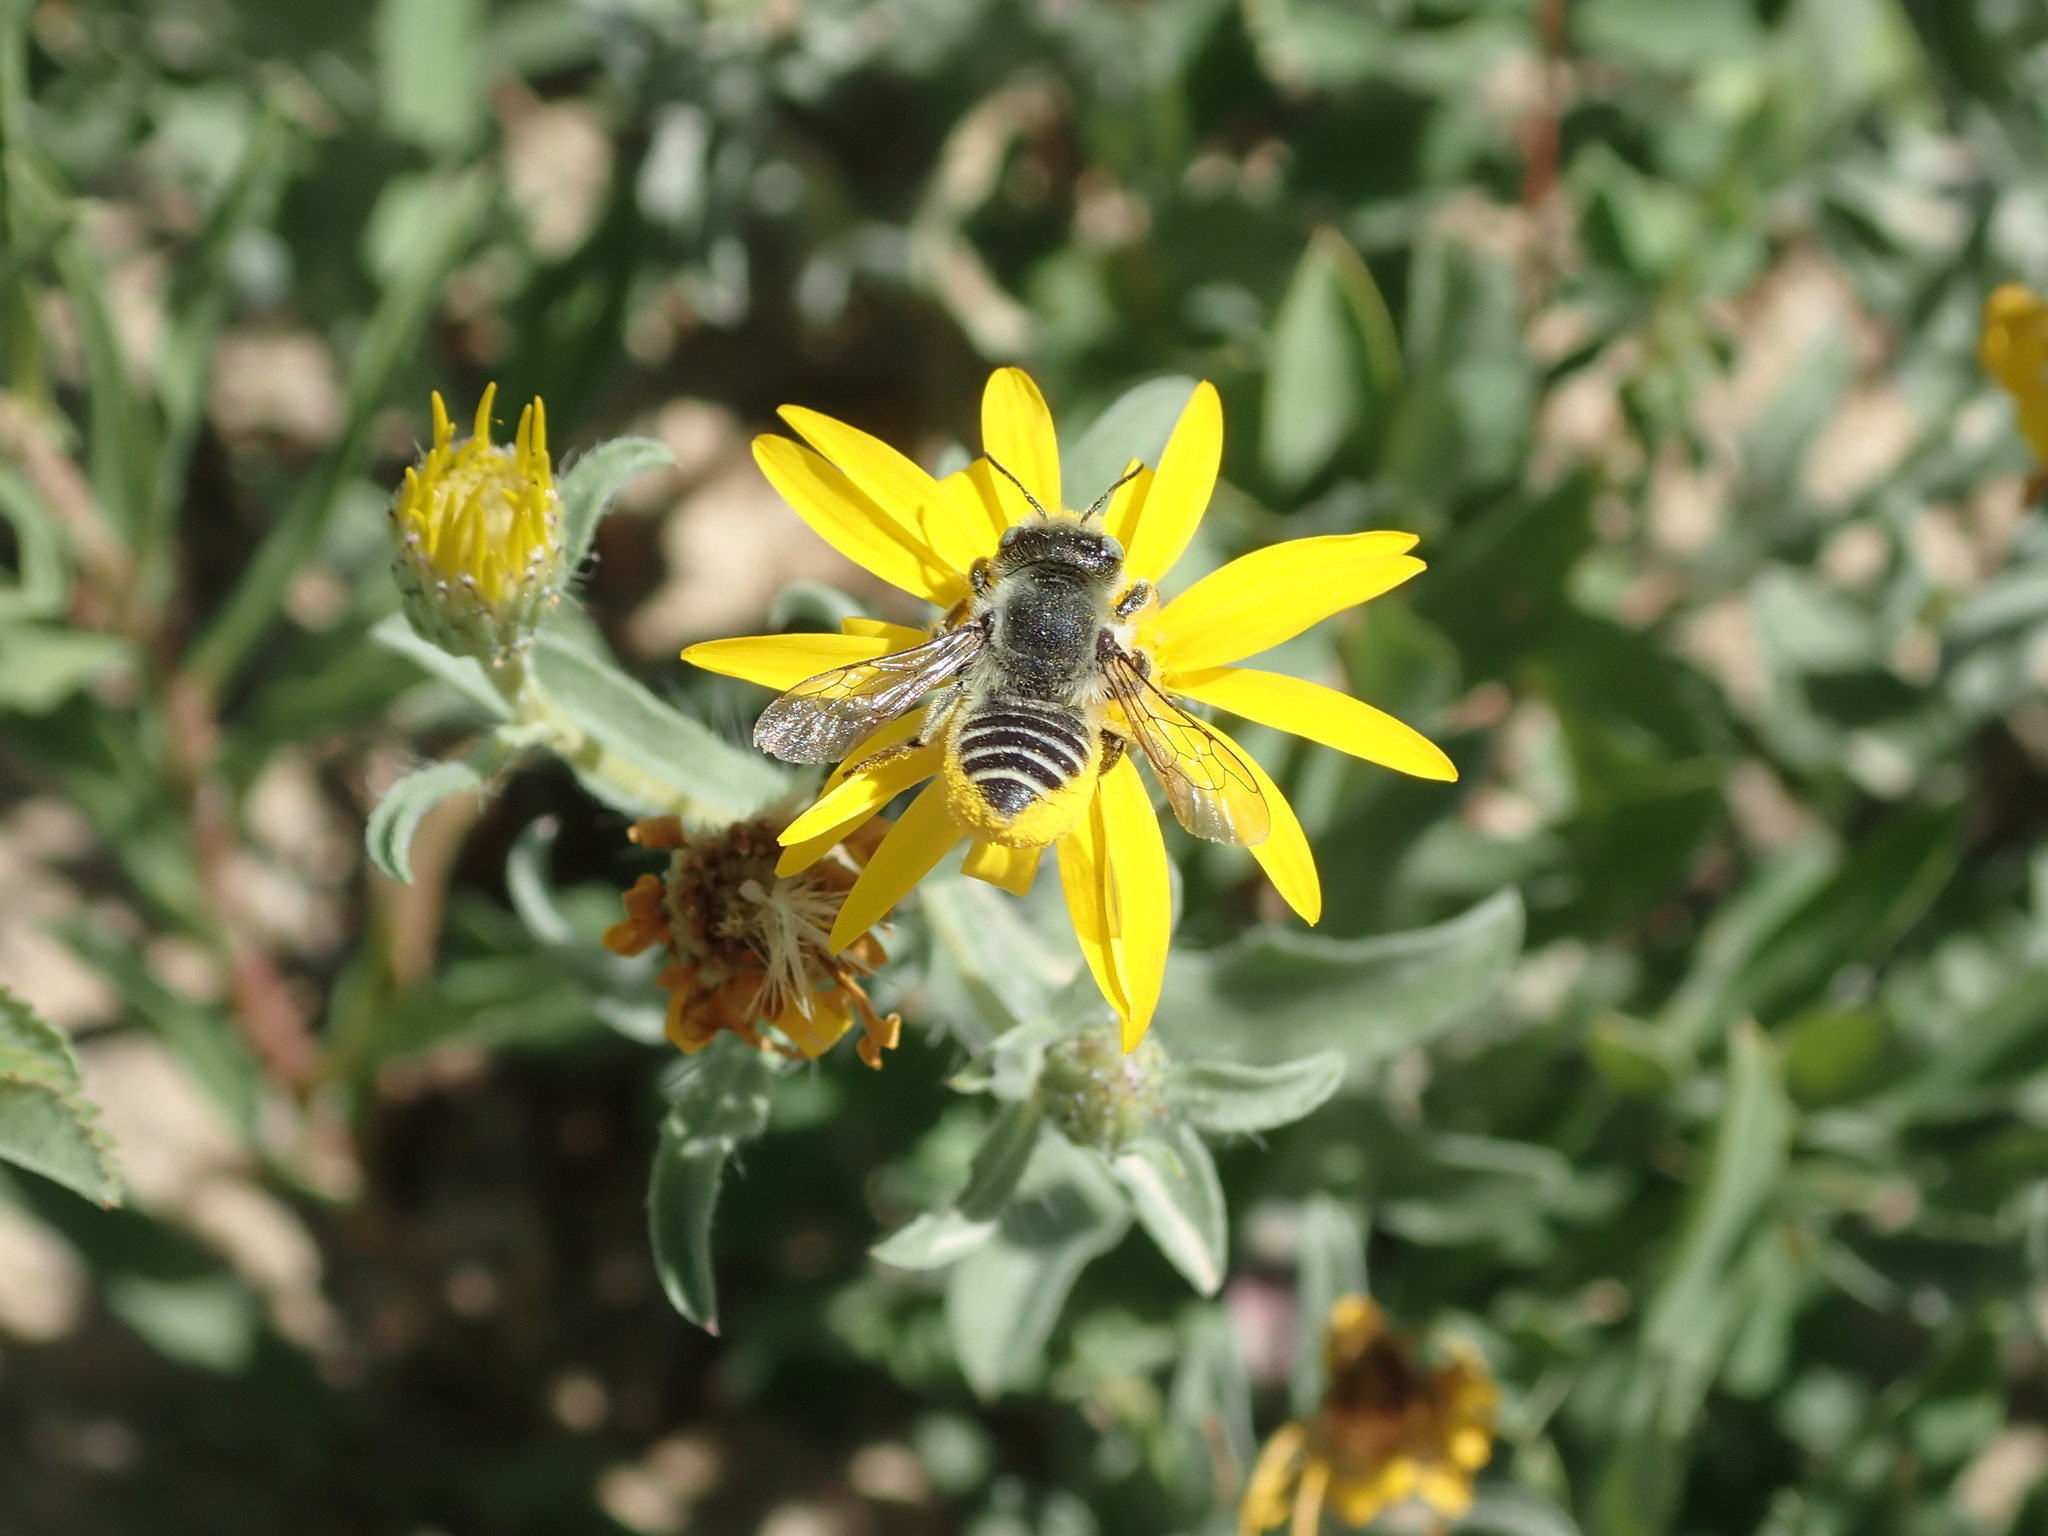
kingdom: Animalia
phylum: Arthropoda
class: Insecta
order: Hymenoptera
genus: Megachiloides
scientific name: Megachiloides
